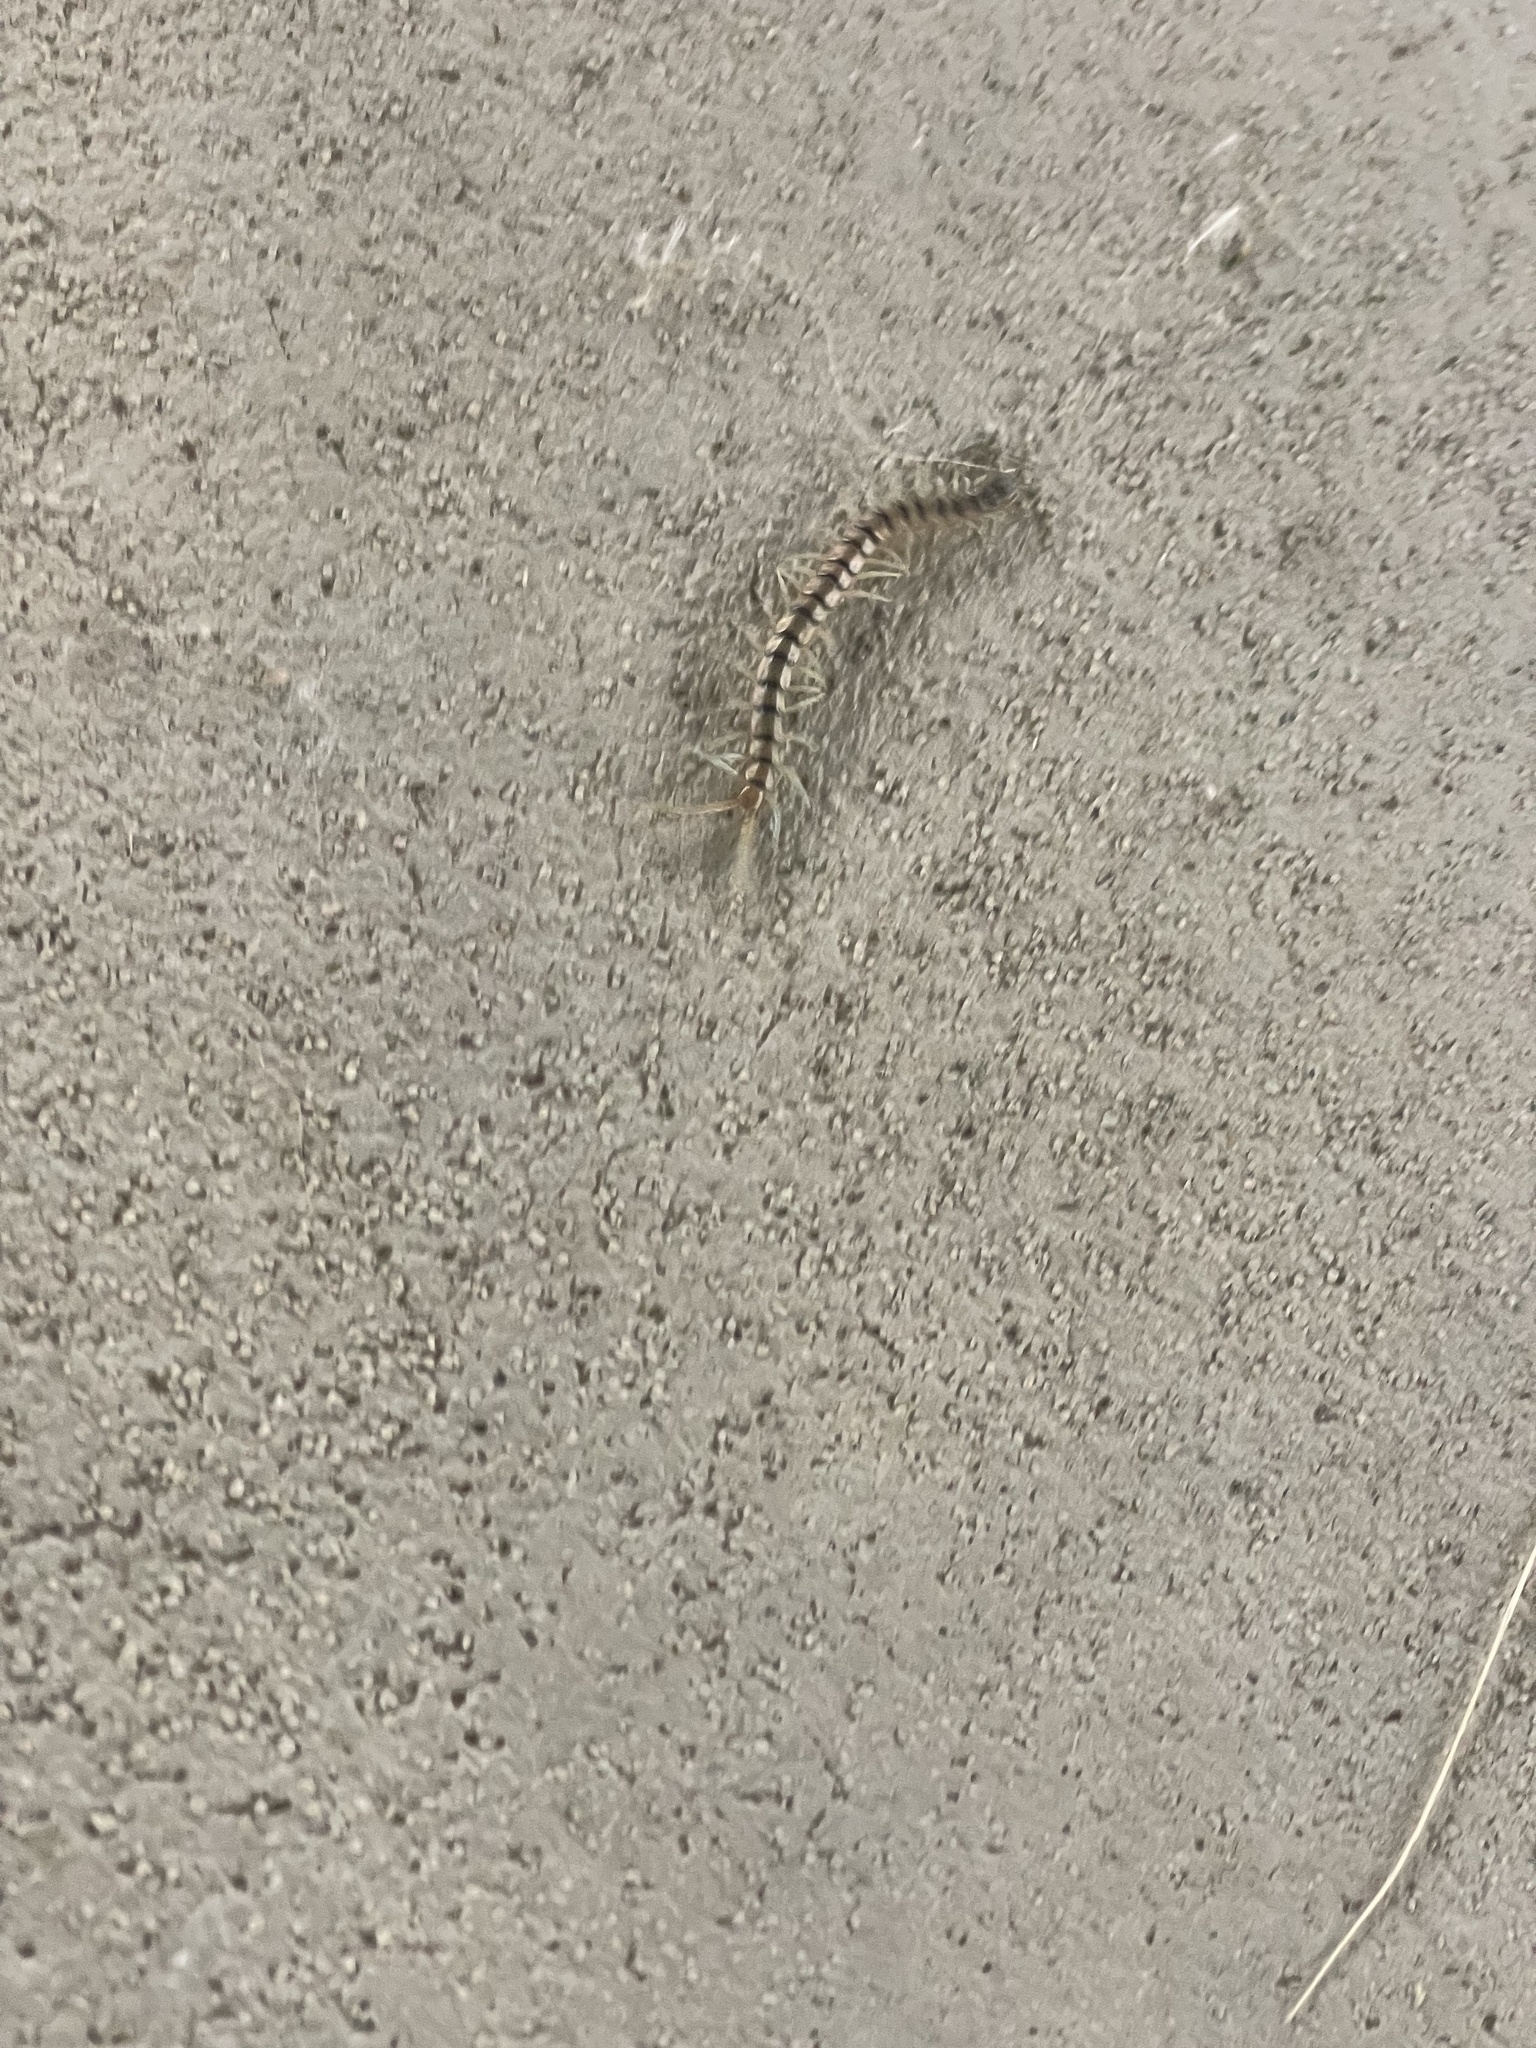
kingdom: Animalia
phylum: Arthropoda
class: Chilopoda
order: Scolopendromorpha
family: Scolopendridae
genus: Scolopendra
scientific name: Scolopendra polymorpha
